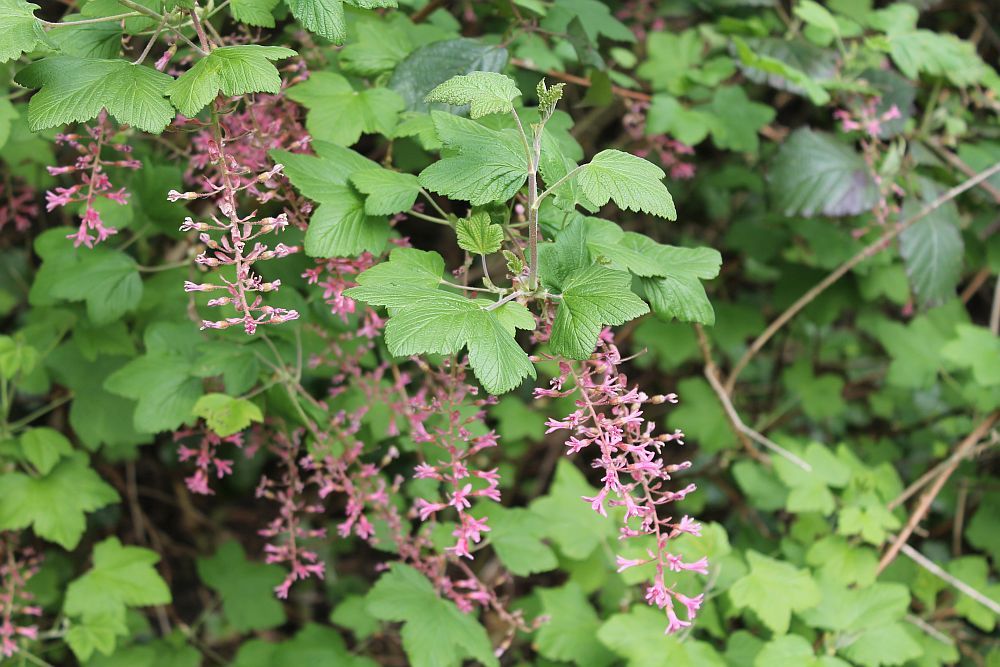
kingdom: Plantae
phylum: Tracheophyta
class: Magnoliopsida
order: Saxifragales
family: Grossulariaceae
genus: Ribes
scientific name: Ribes sanguineum
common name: Flowering currant
